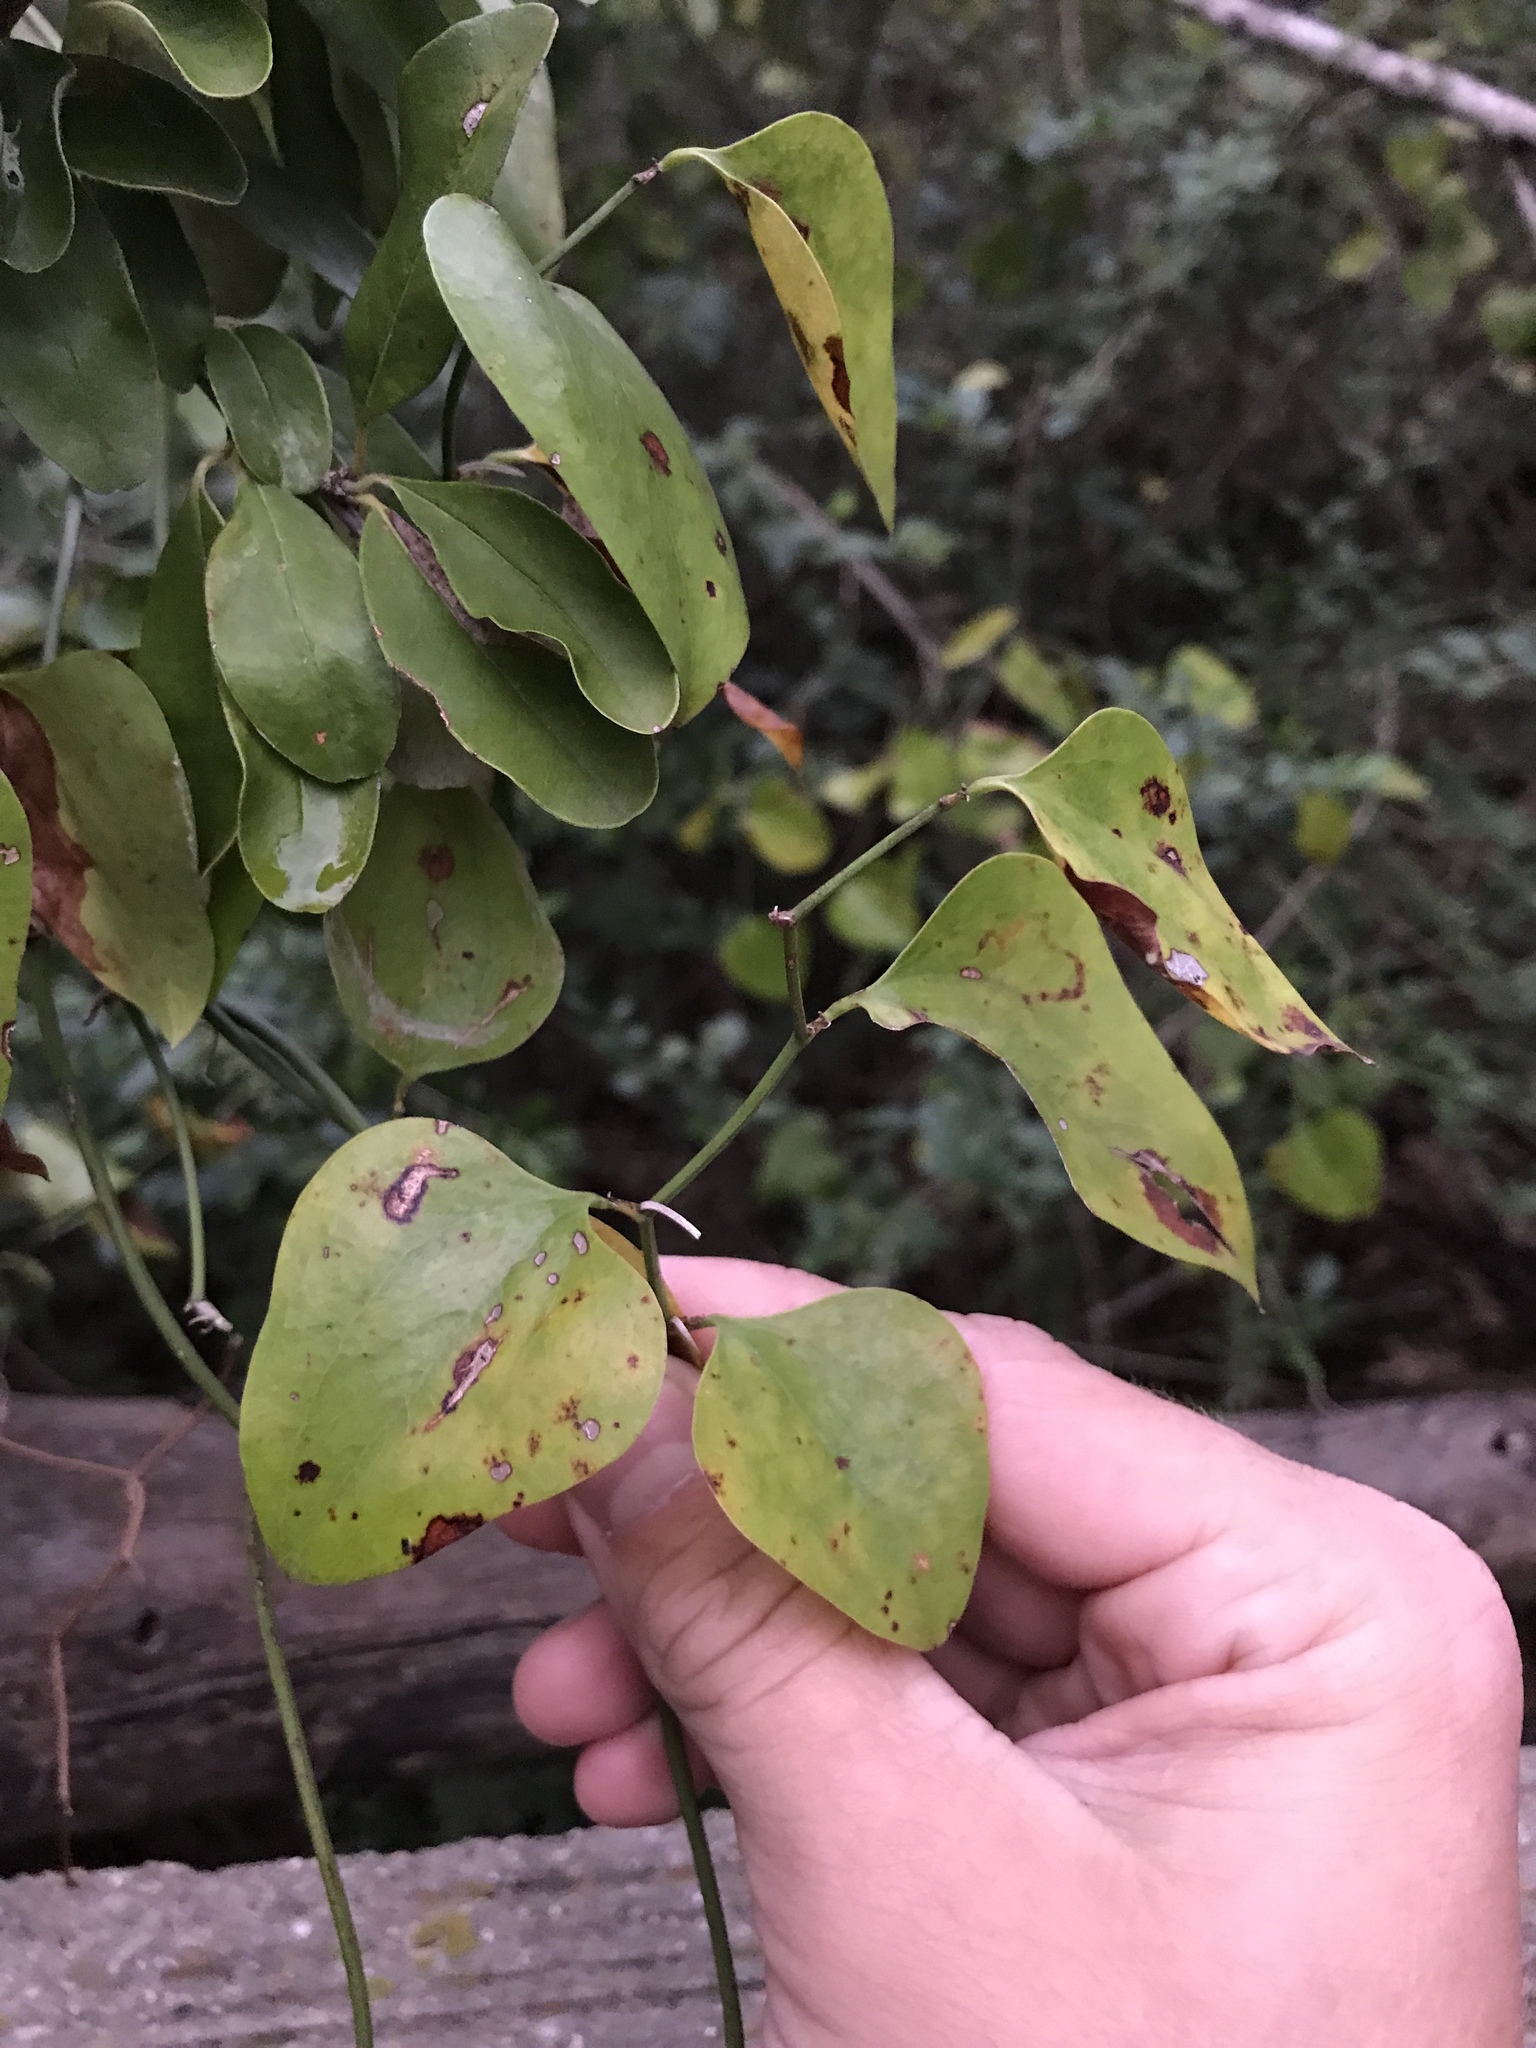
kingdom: Plantae
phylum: Tracheophyta
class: Liliopsida
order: Liliales
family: Smilacaceae
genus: Smilax
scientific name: Smilax bona-nox
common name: Catbrier
